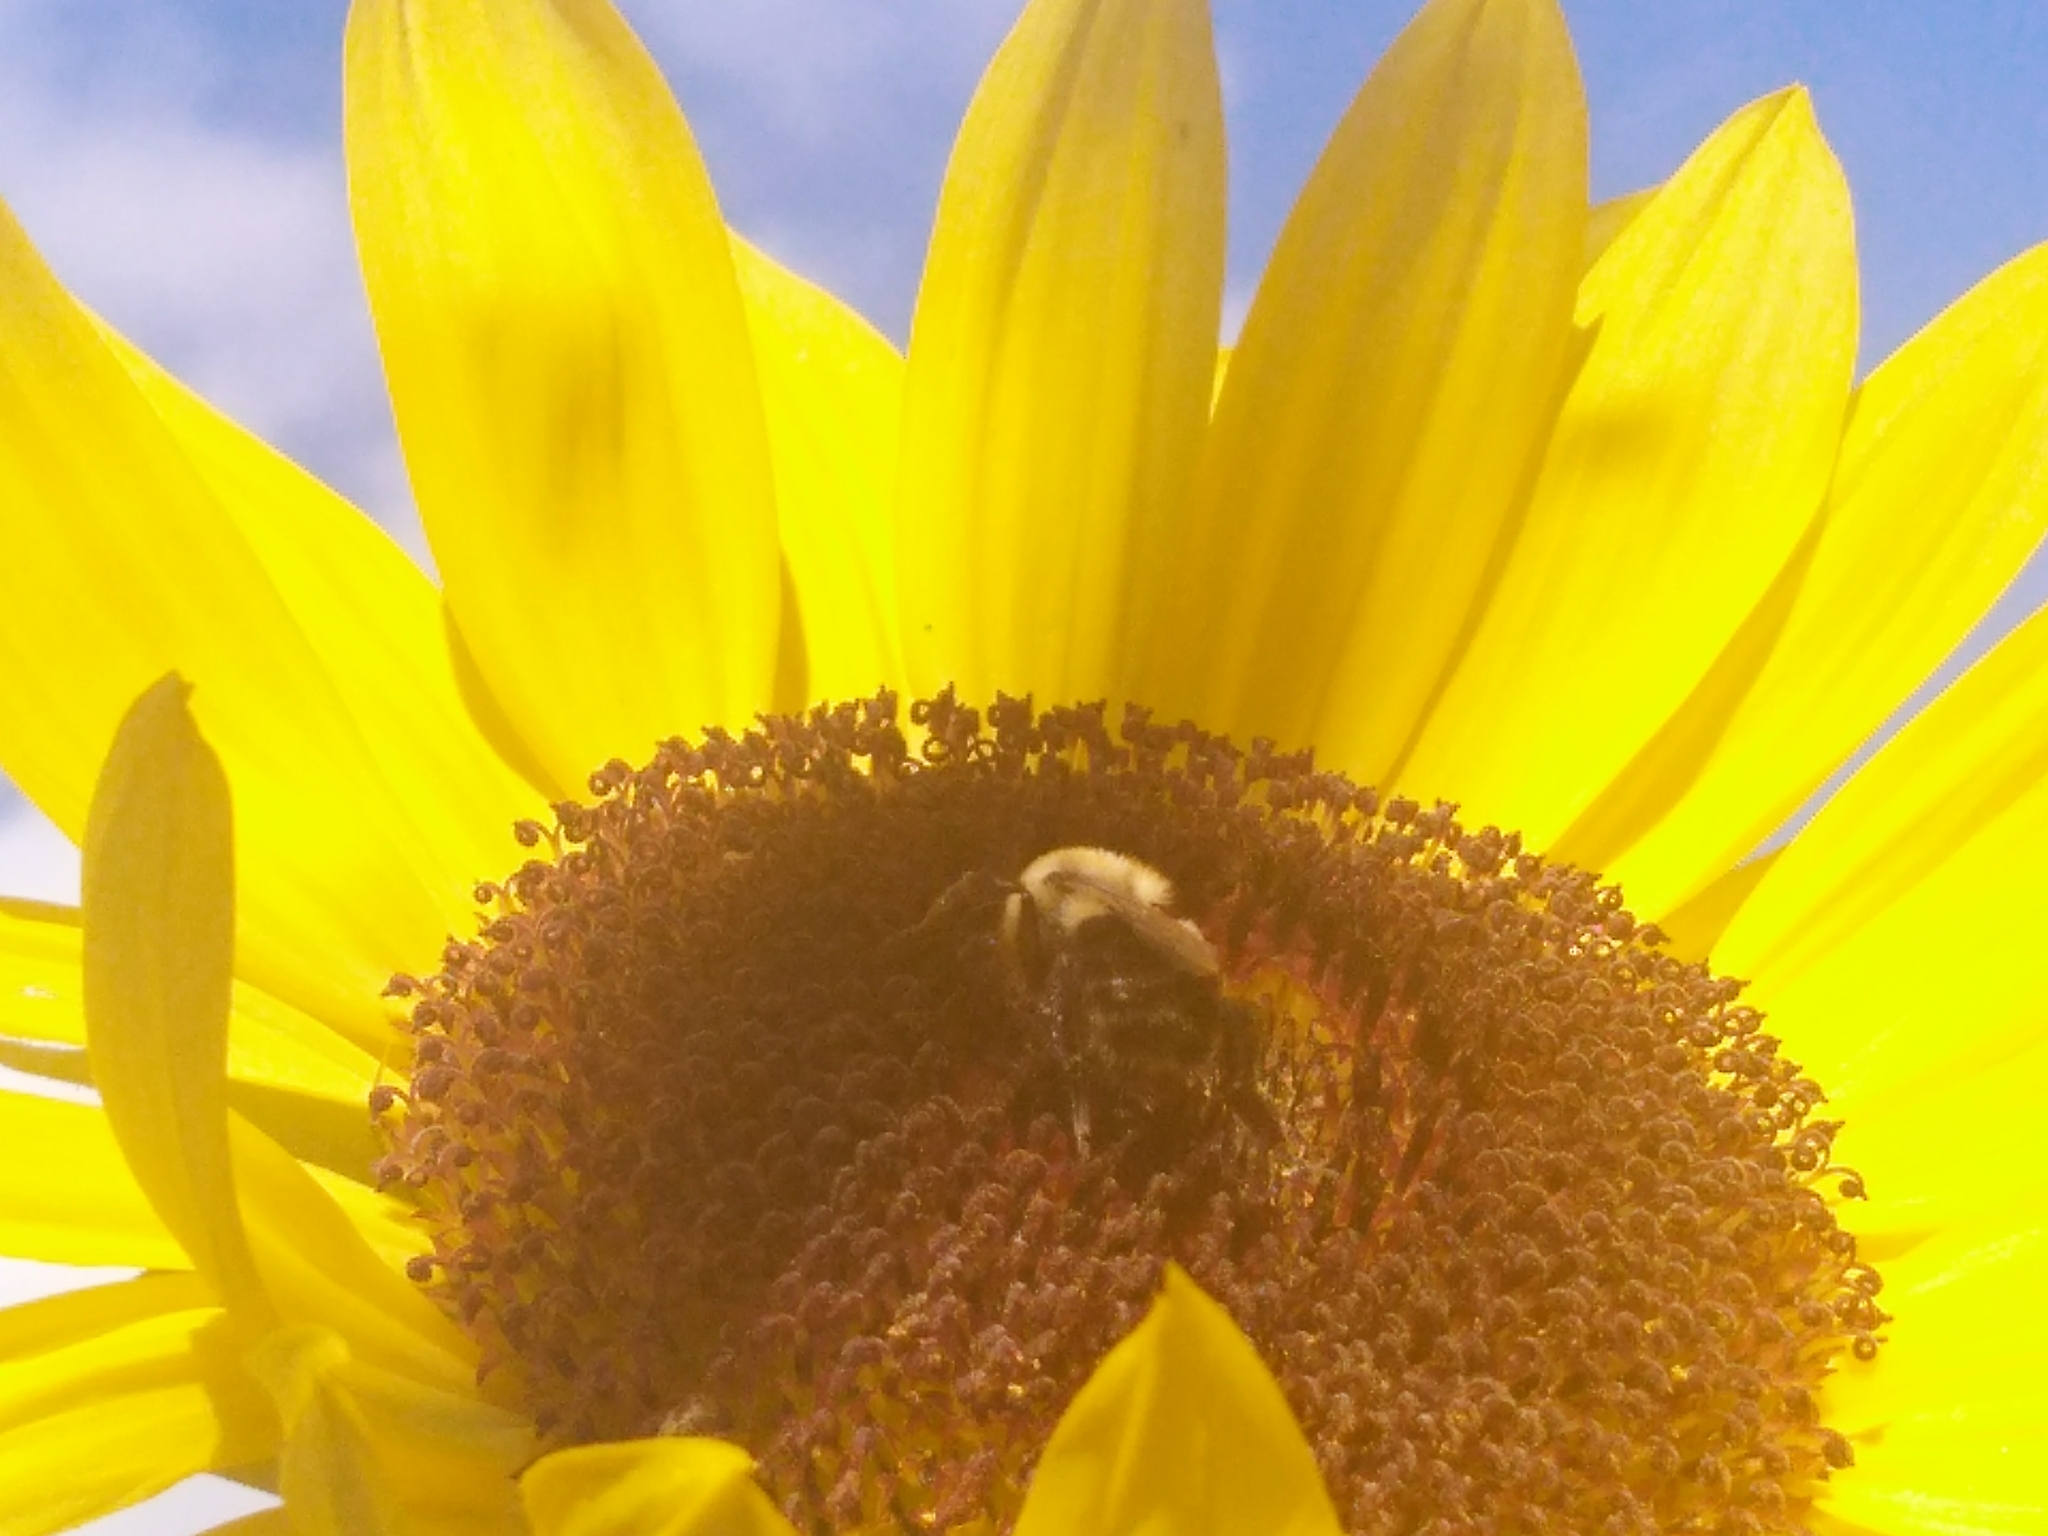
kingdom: Animalia
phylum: Arthropoda
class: Insecta
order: Hymenoptera
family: Apidae
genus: Bombus
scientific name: Bombus impatiens
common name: Common eastern bumble bee
